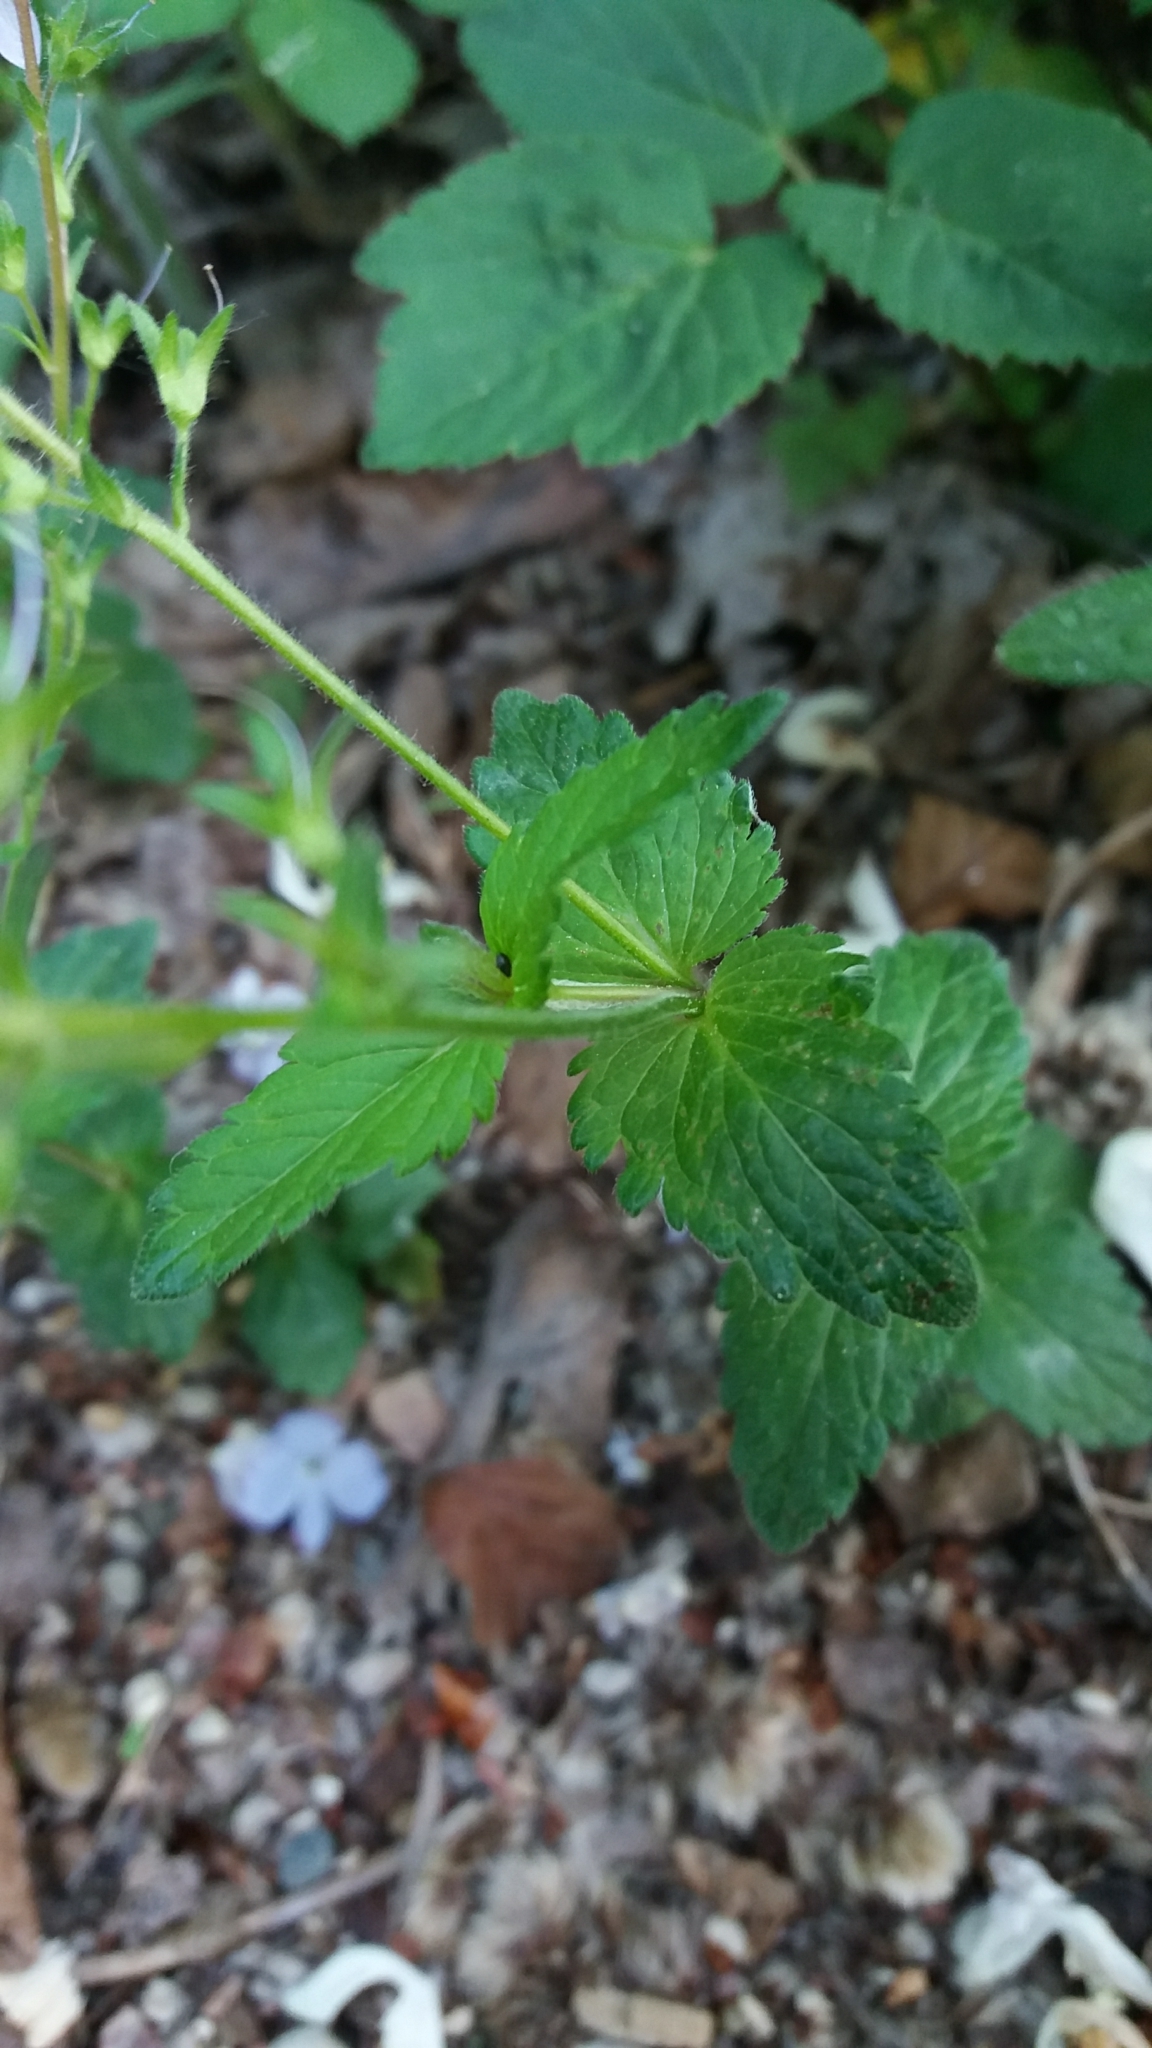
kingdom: Plantae
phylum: Tracheophyta
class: Magnoliopsida
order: Lamiales
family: Plantaginaceae
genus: Veronica
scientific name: Veronica chamaedrys
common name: Germander speedwell
